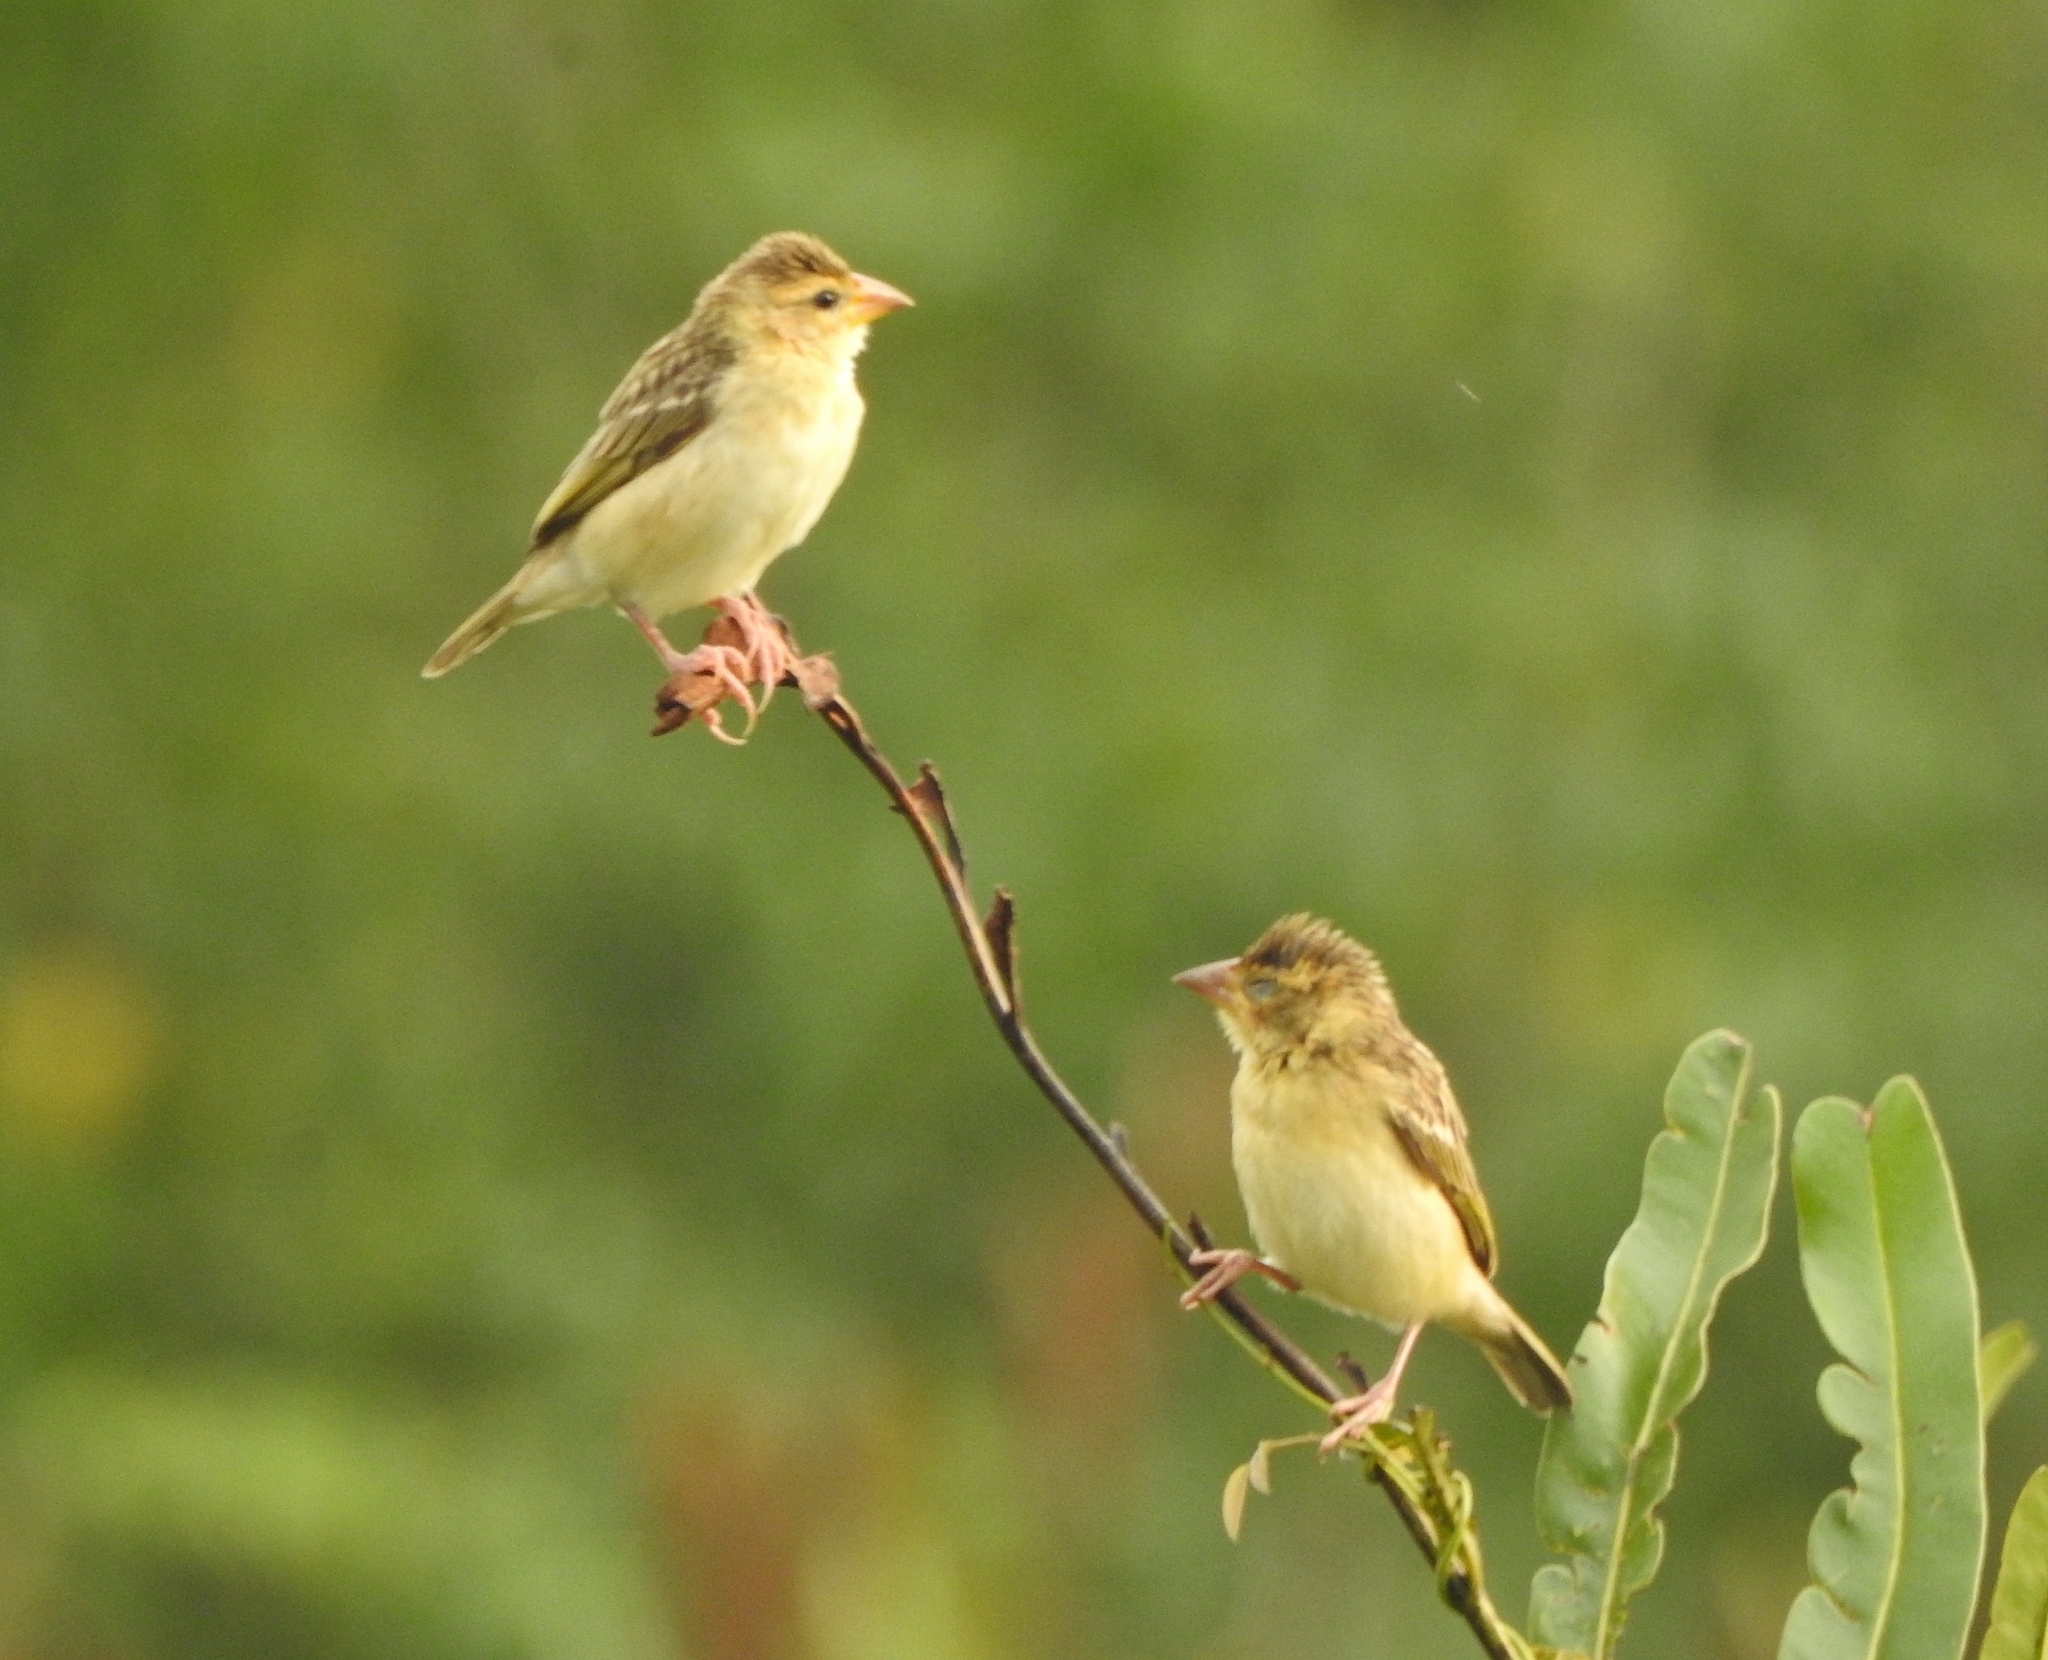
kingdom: Animalia
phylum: Chordata
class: Aves
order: Passeriformes
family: Ploceidae
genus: Ploceus
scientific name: Ploceus philippinus
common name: Baya weaver
